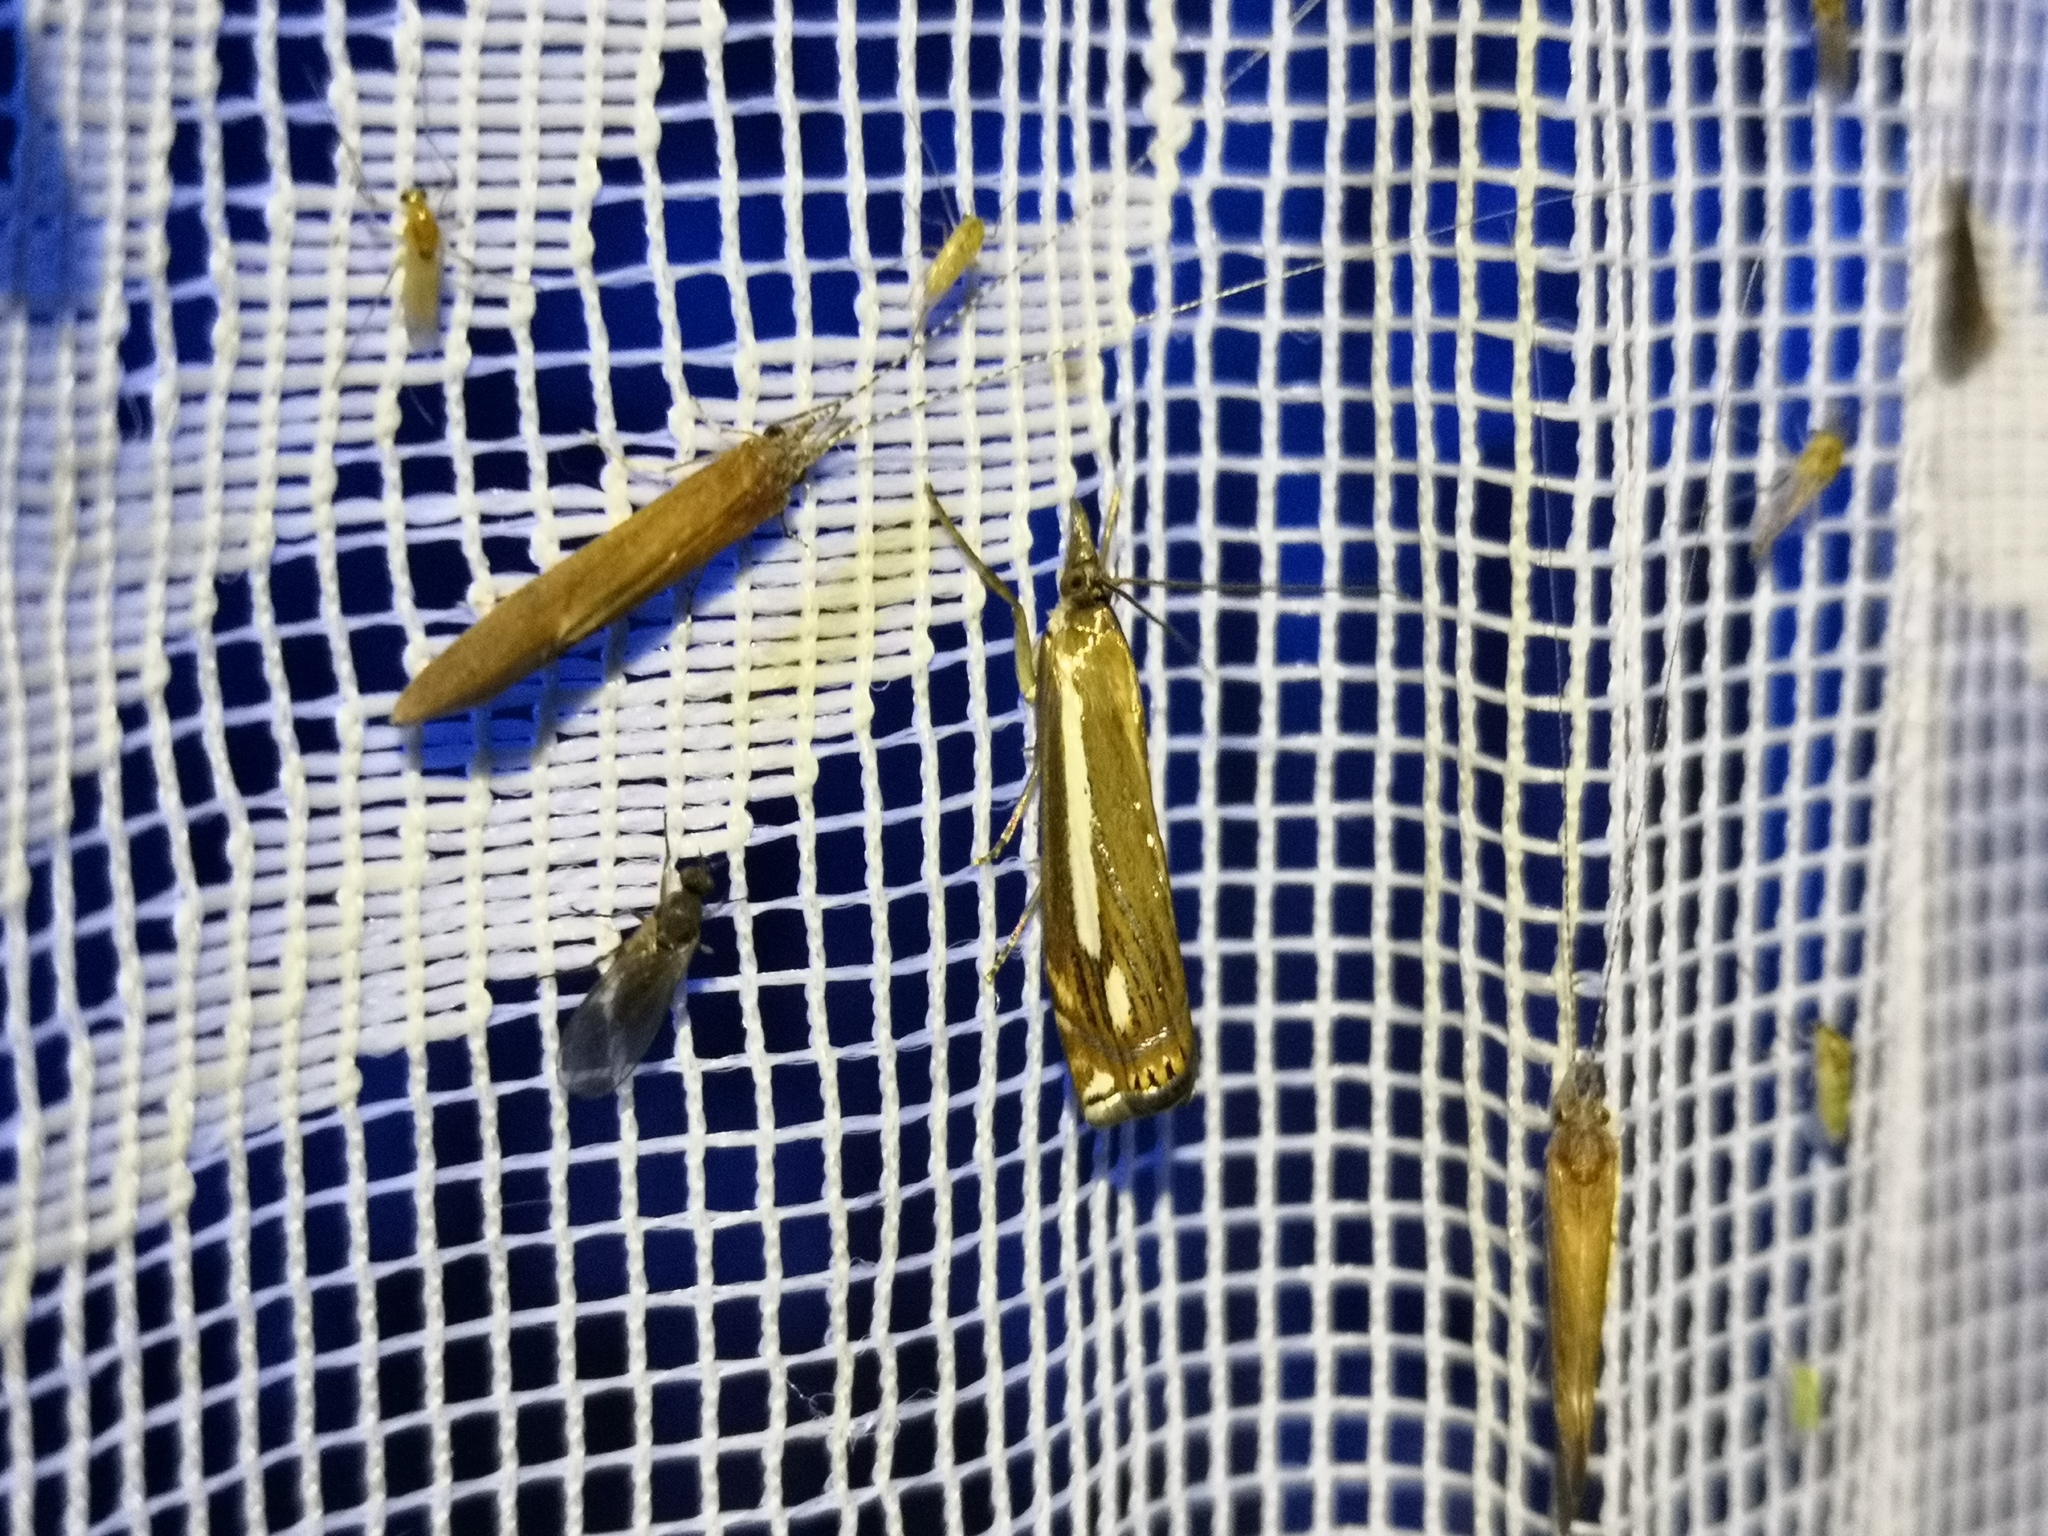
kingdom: Animalia
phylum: Arthropoda
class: Insecta
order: Lepidoptera
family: Crambidae
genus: Crambus
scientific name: Crambus ericella
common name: Heath grass-veneer
